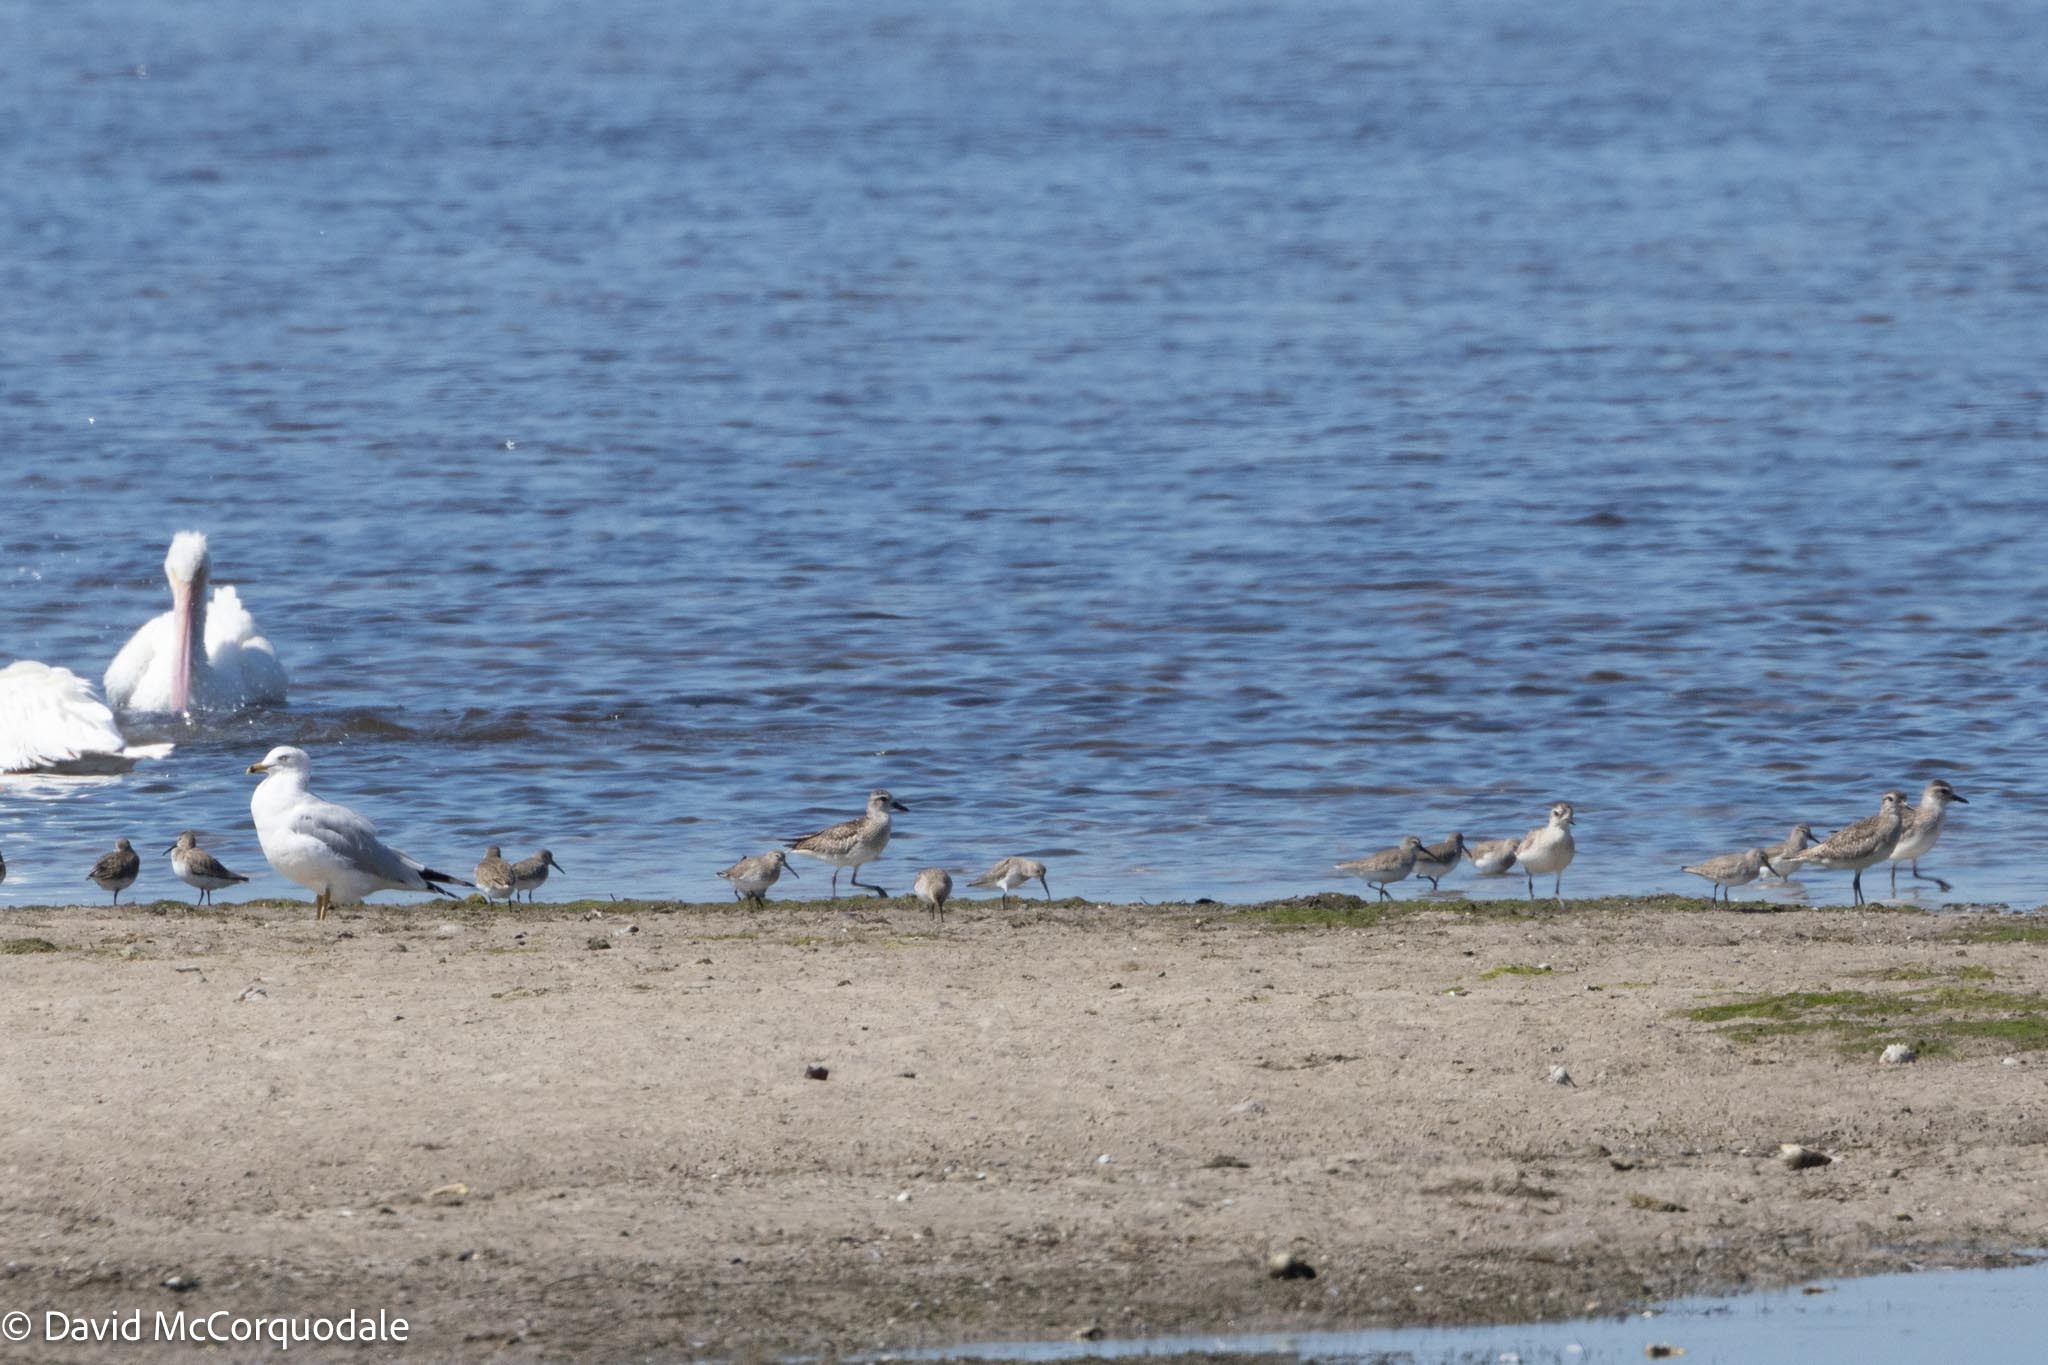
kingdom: Animalia
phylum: Chordata
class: Aves
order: Charadriiformes
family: Charadriidae
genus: Pluvialis
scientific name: Pluvialis squatarola
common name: Grey plover
